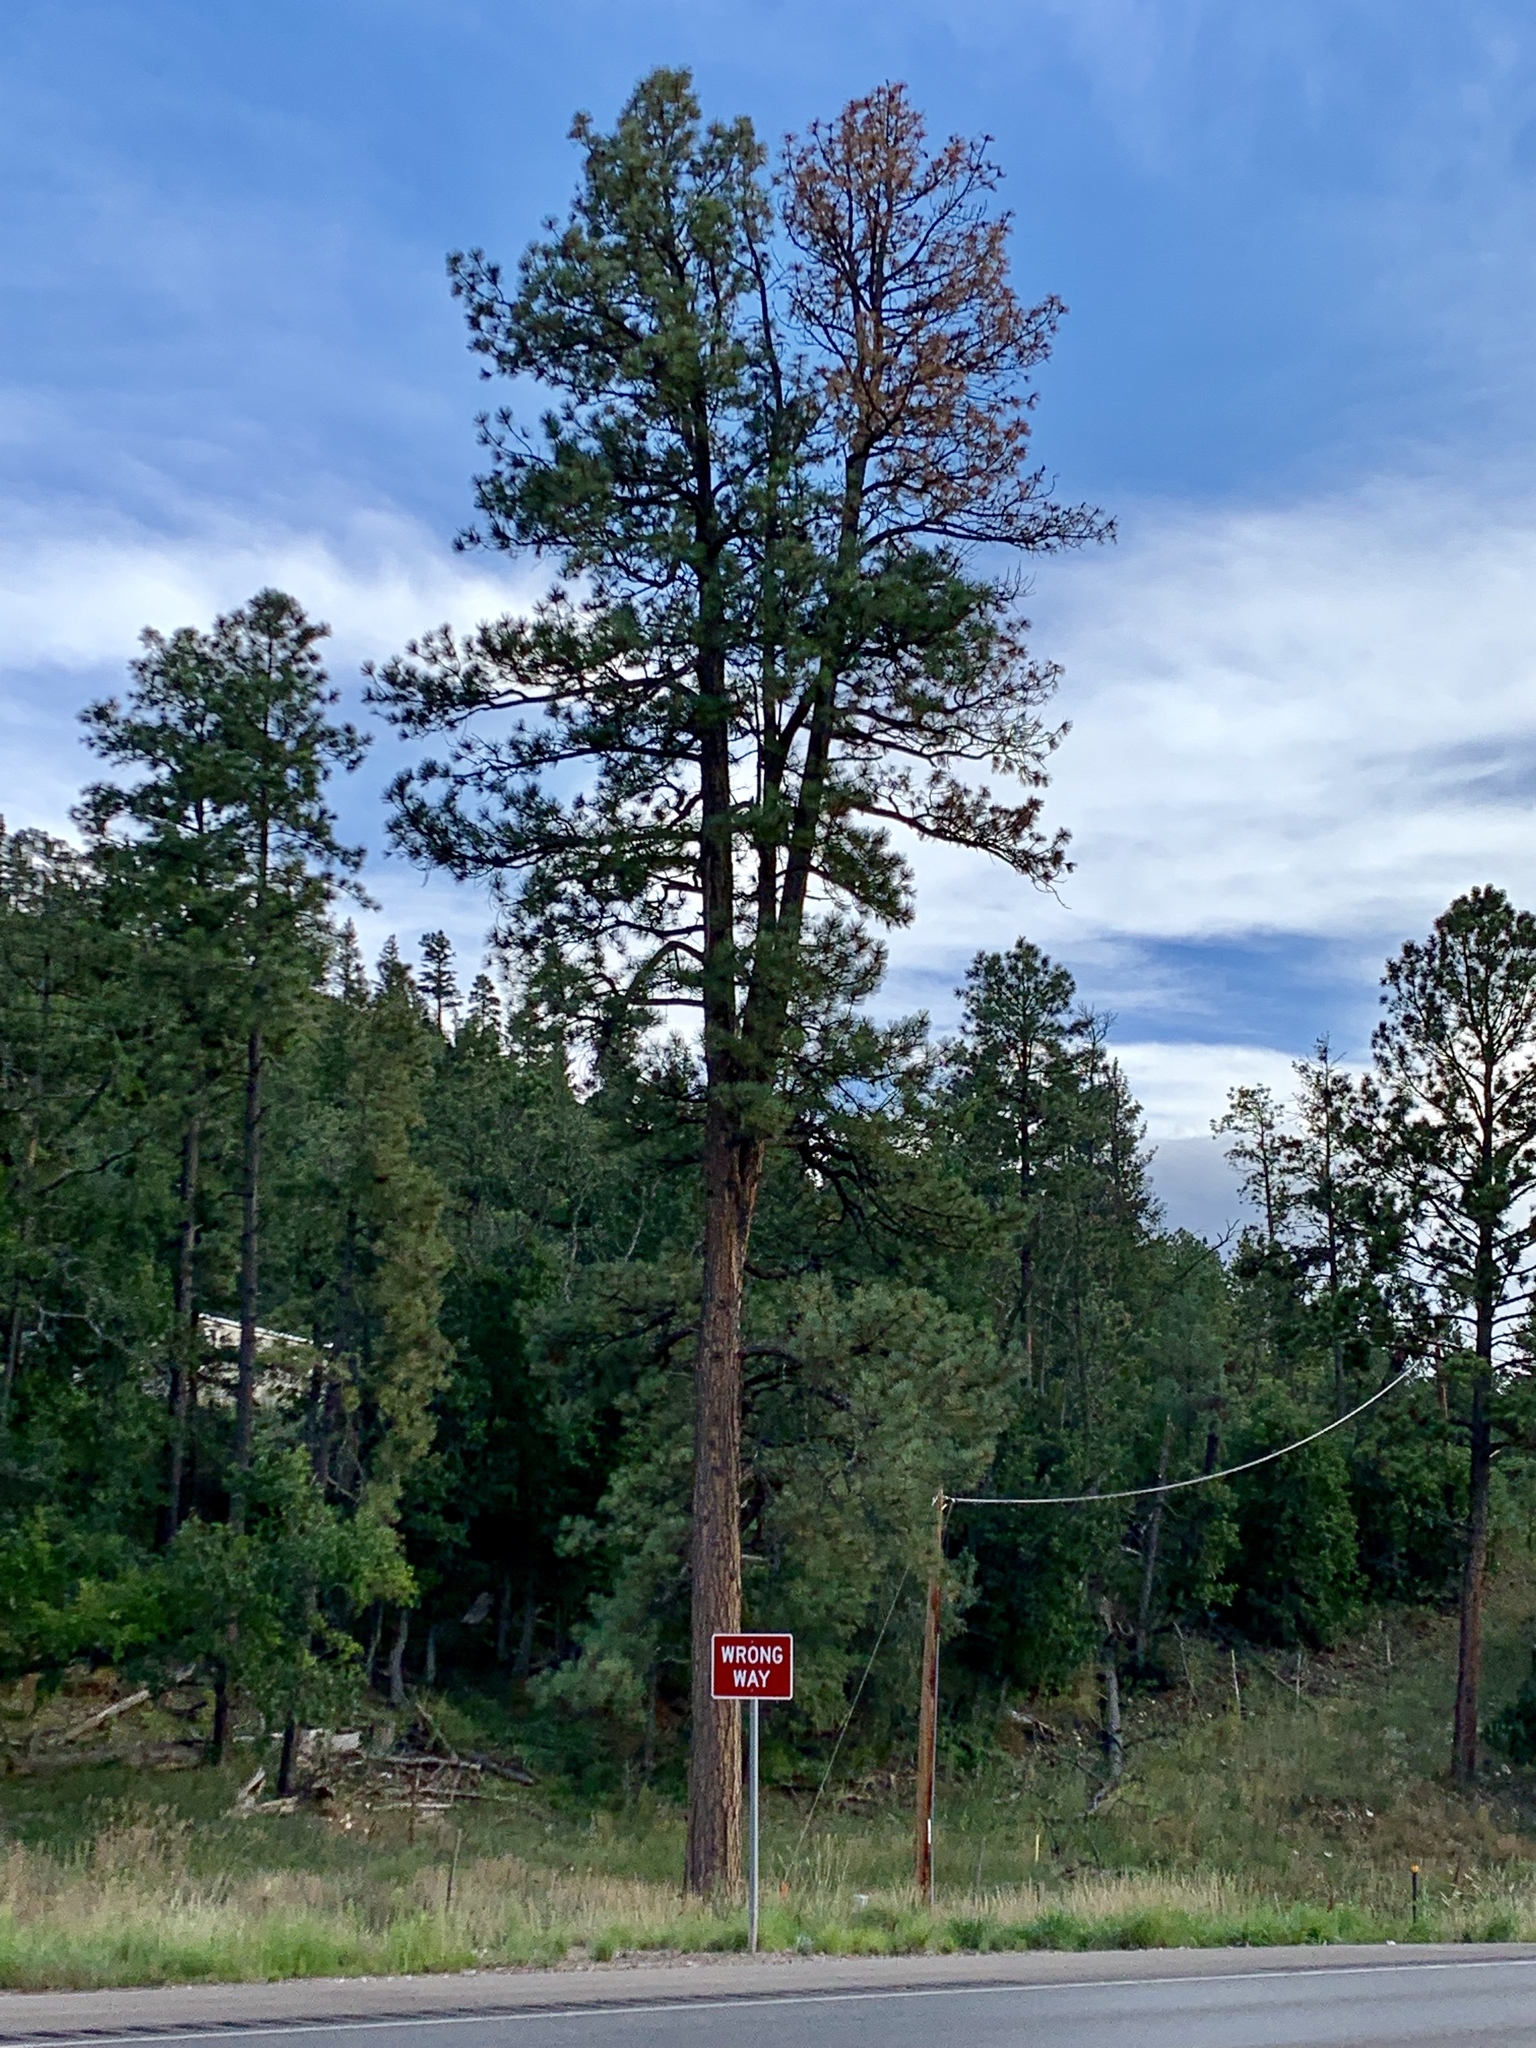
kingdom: Plantae
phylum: Tracheophyta
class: Pinopsida
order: Pinales
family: Pinaceae
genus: Pinus
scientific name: Pinus ponderosa
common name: Western yellow-pine
